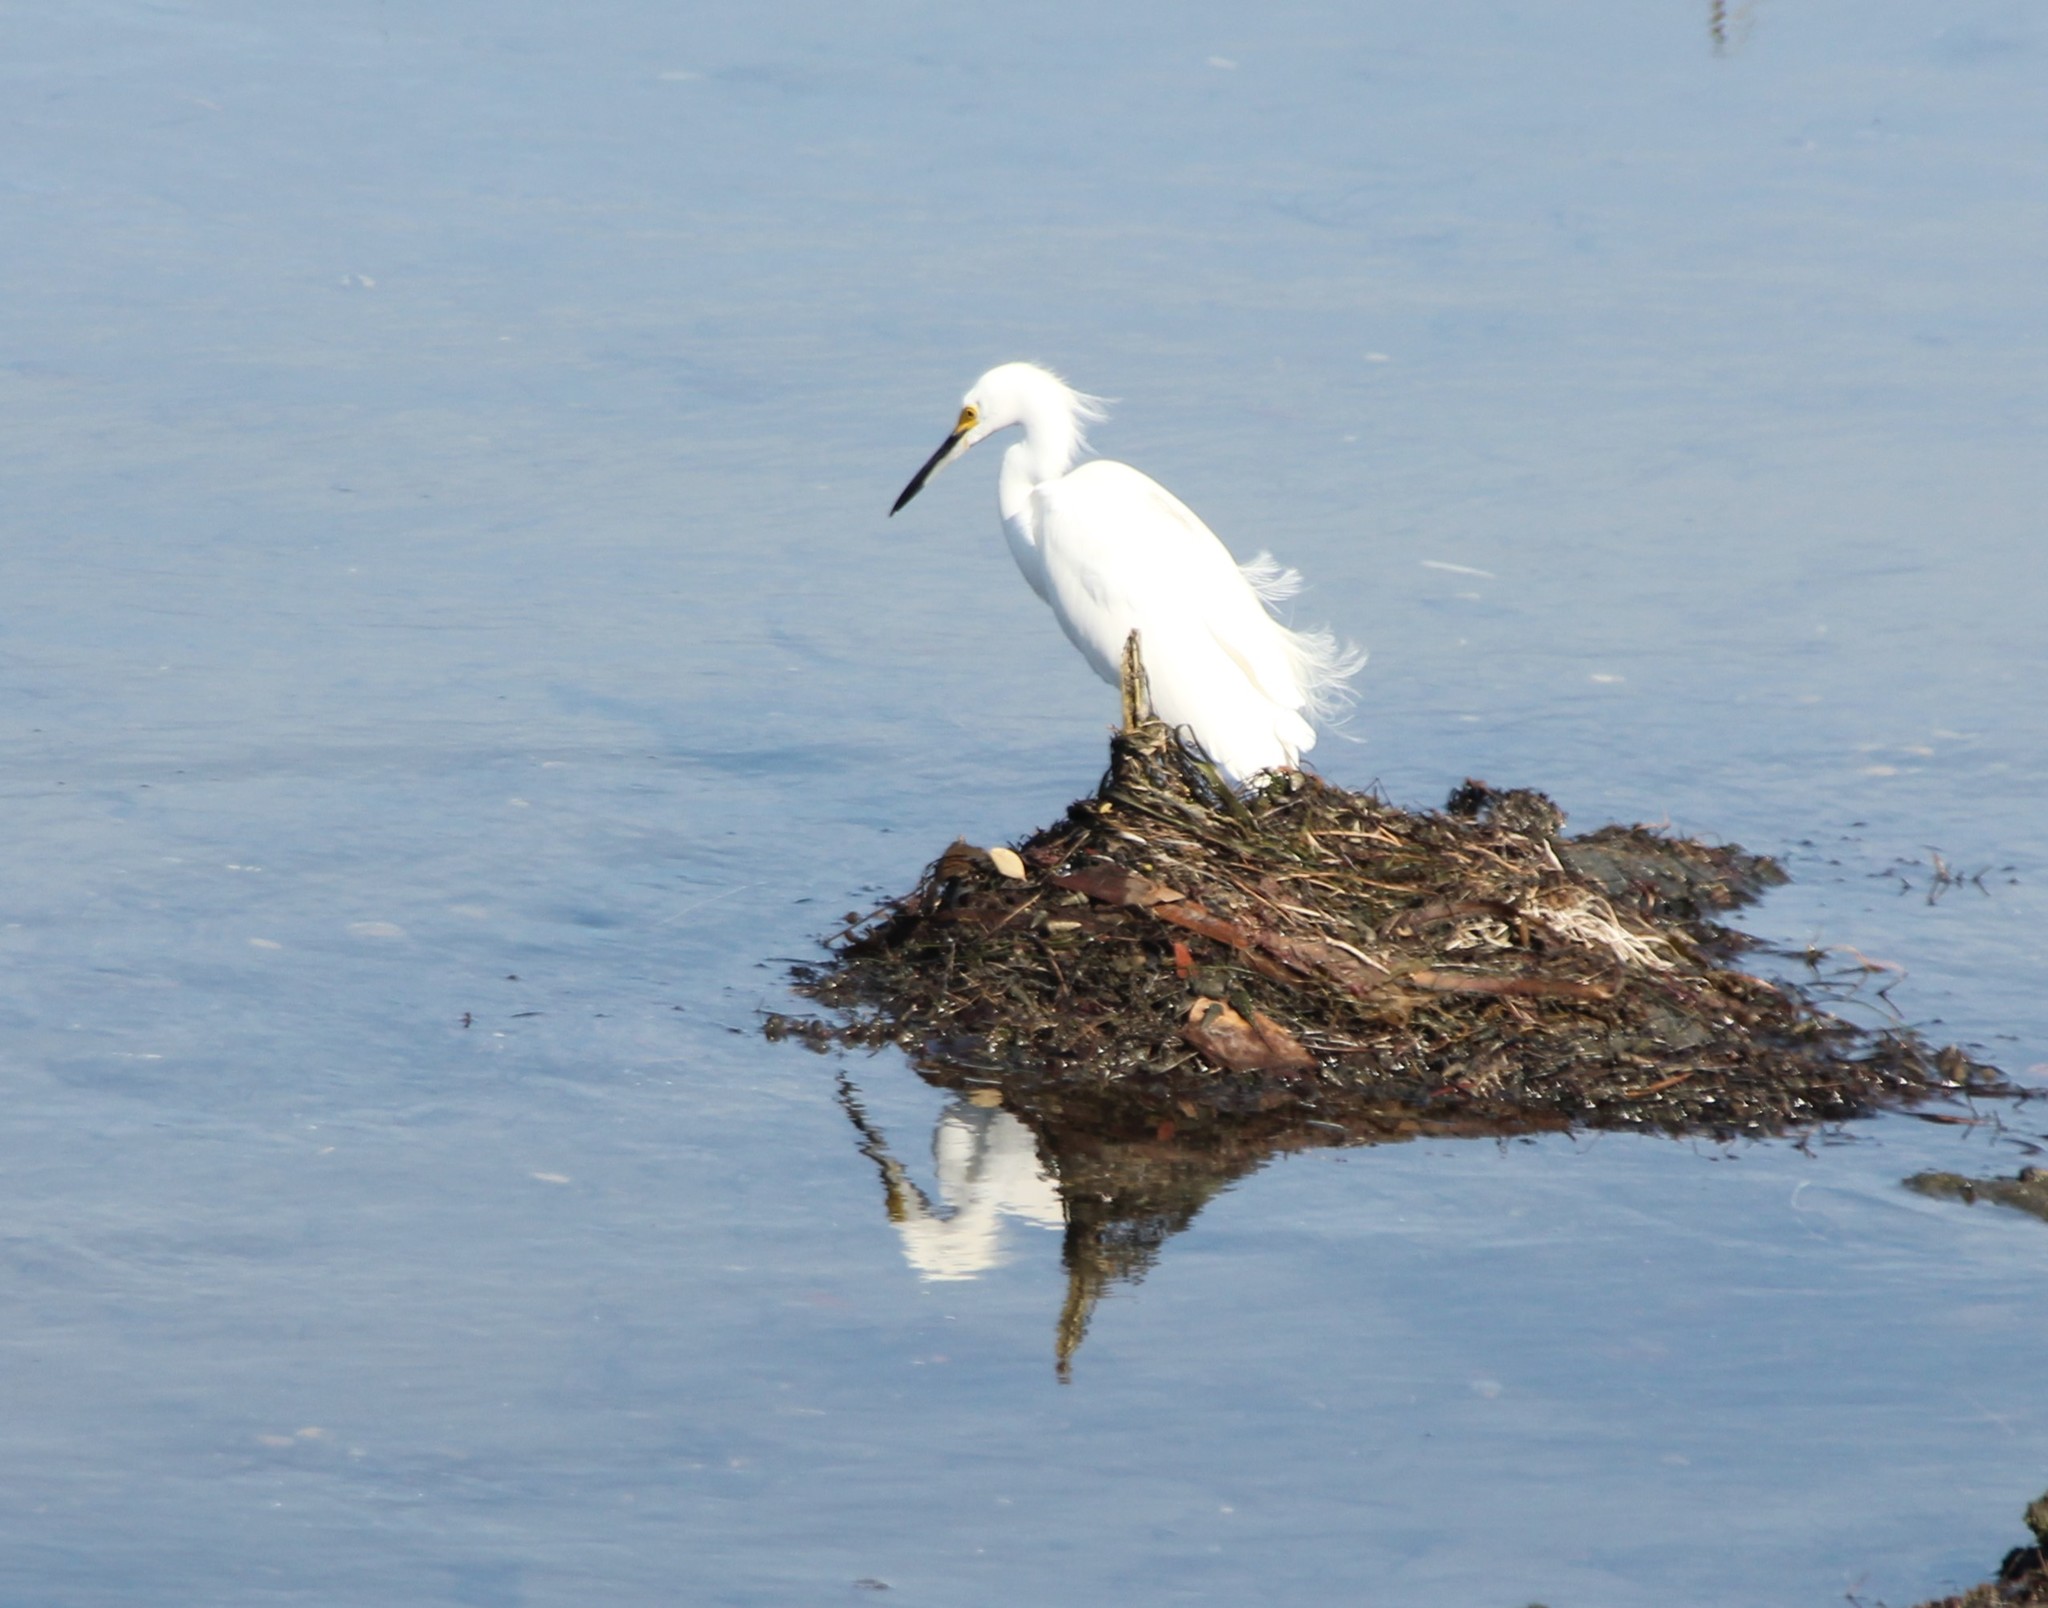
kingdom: Animalia
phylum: Chordata
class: Aves
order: Pelecaniformes
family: Ardeidae
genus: Egretta
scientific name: Egretta thula
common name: Snowy egret
